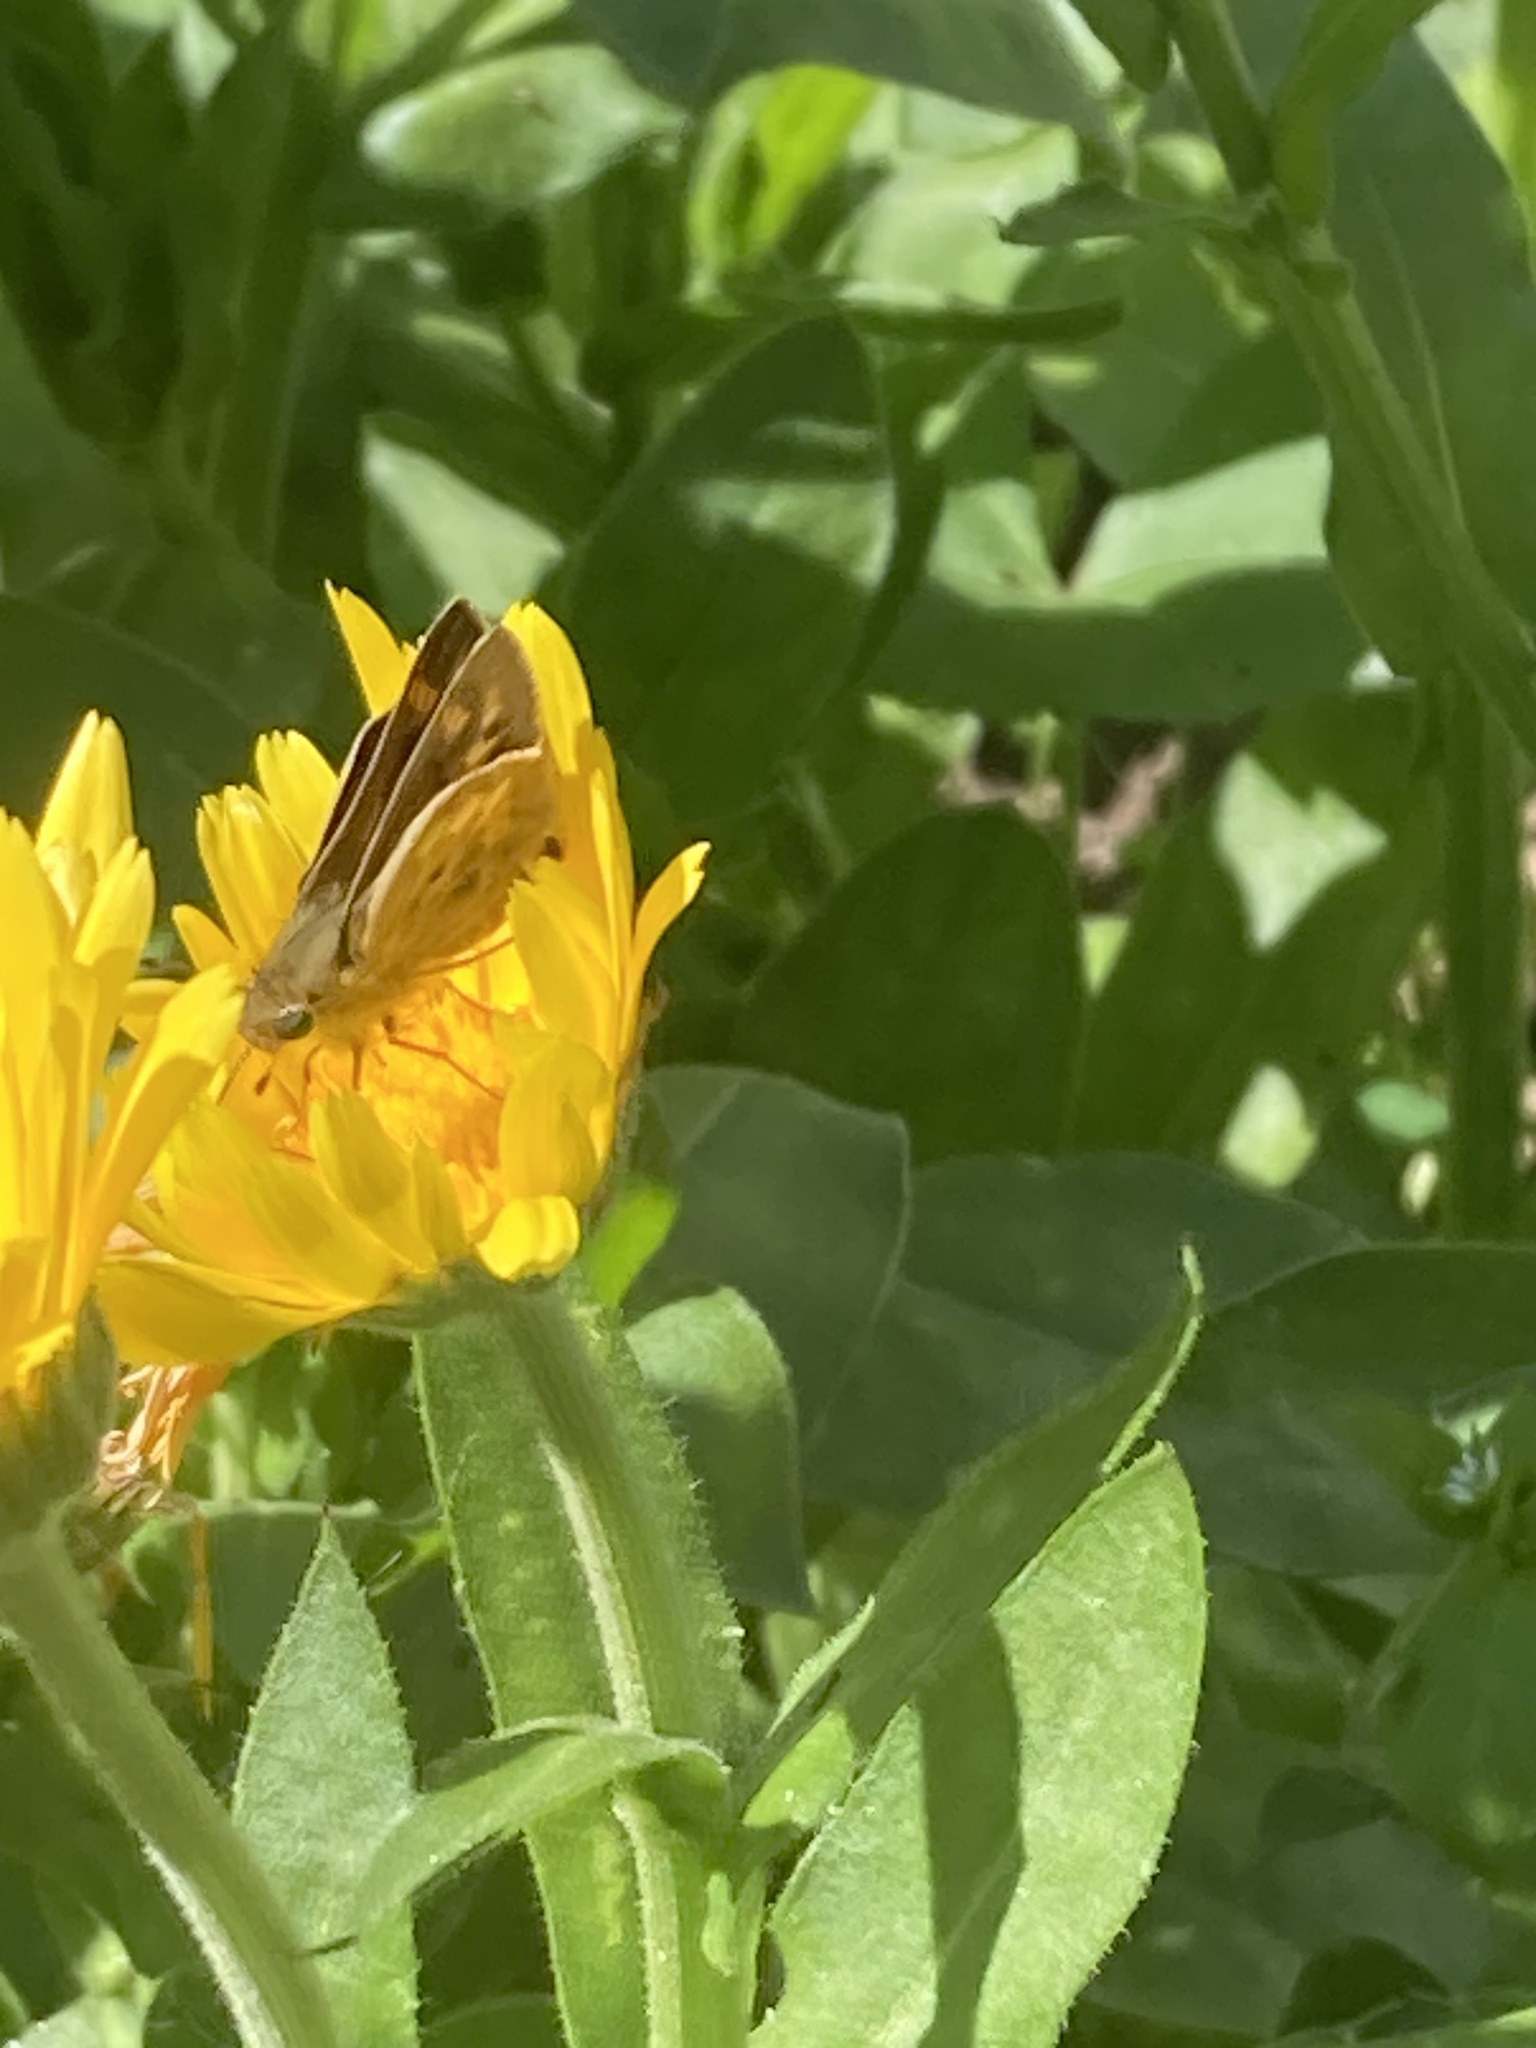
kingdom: Animalia
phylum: Arthropoda
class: Insecta
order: Lepidoptera
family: Hesperiidae
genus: Hylephila
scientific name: Hylephila phyleus
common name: Fiery skipper
